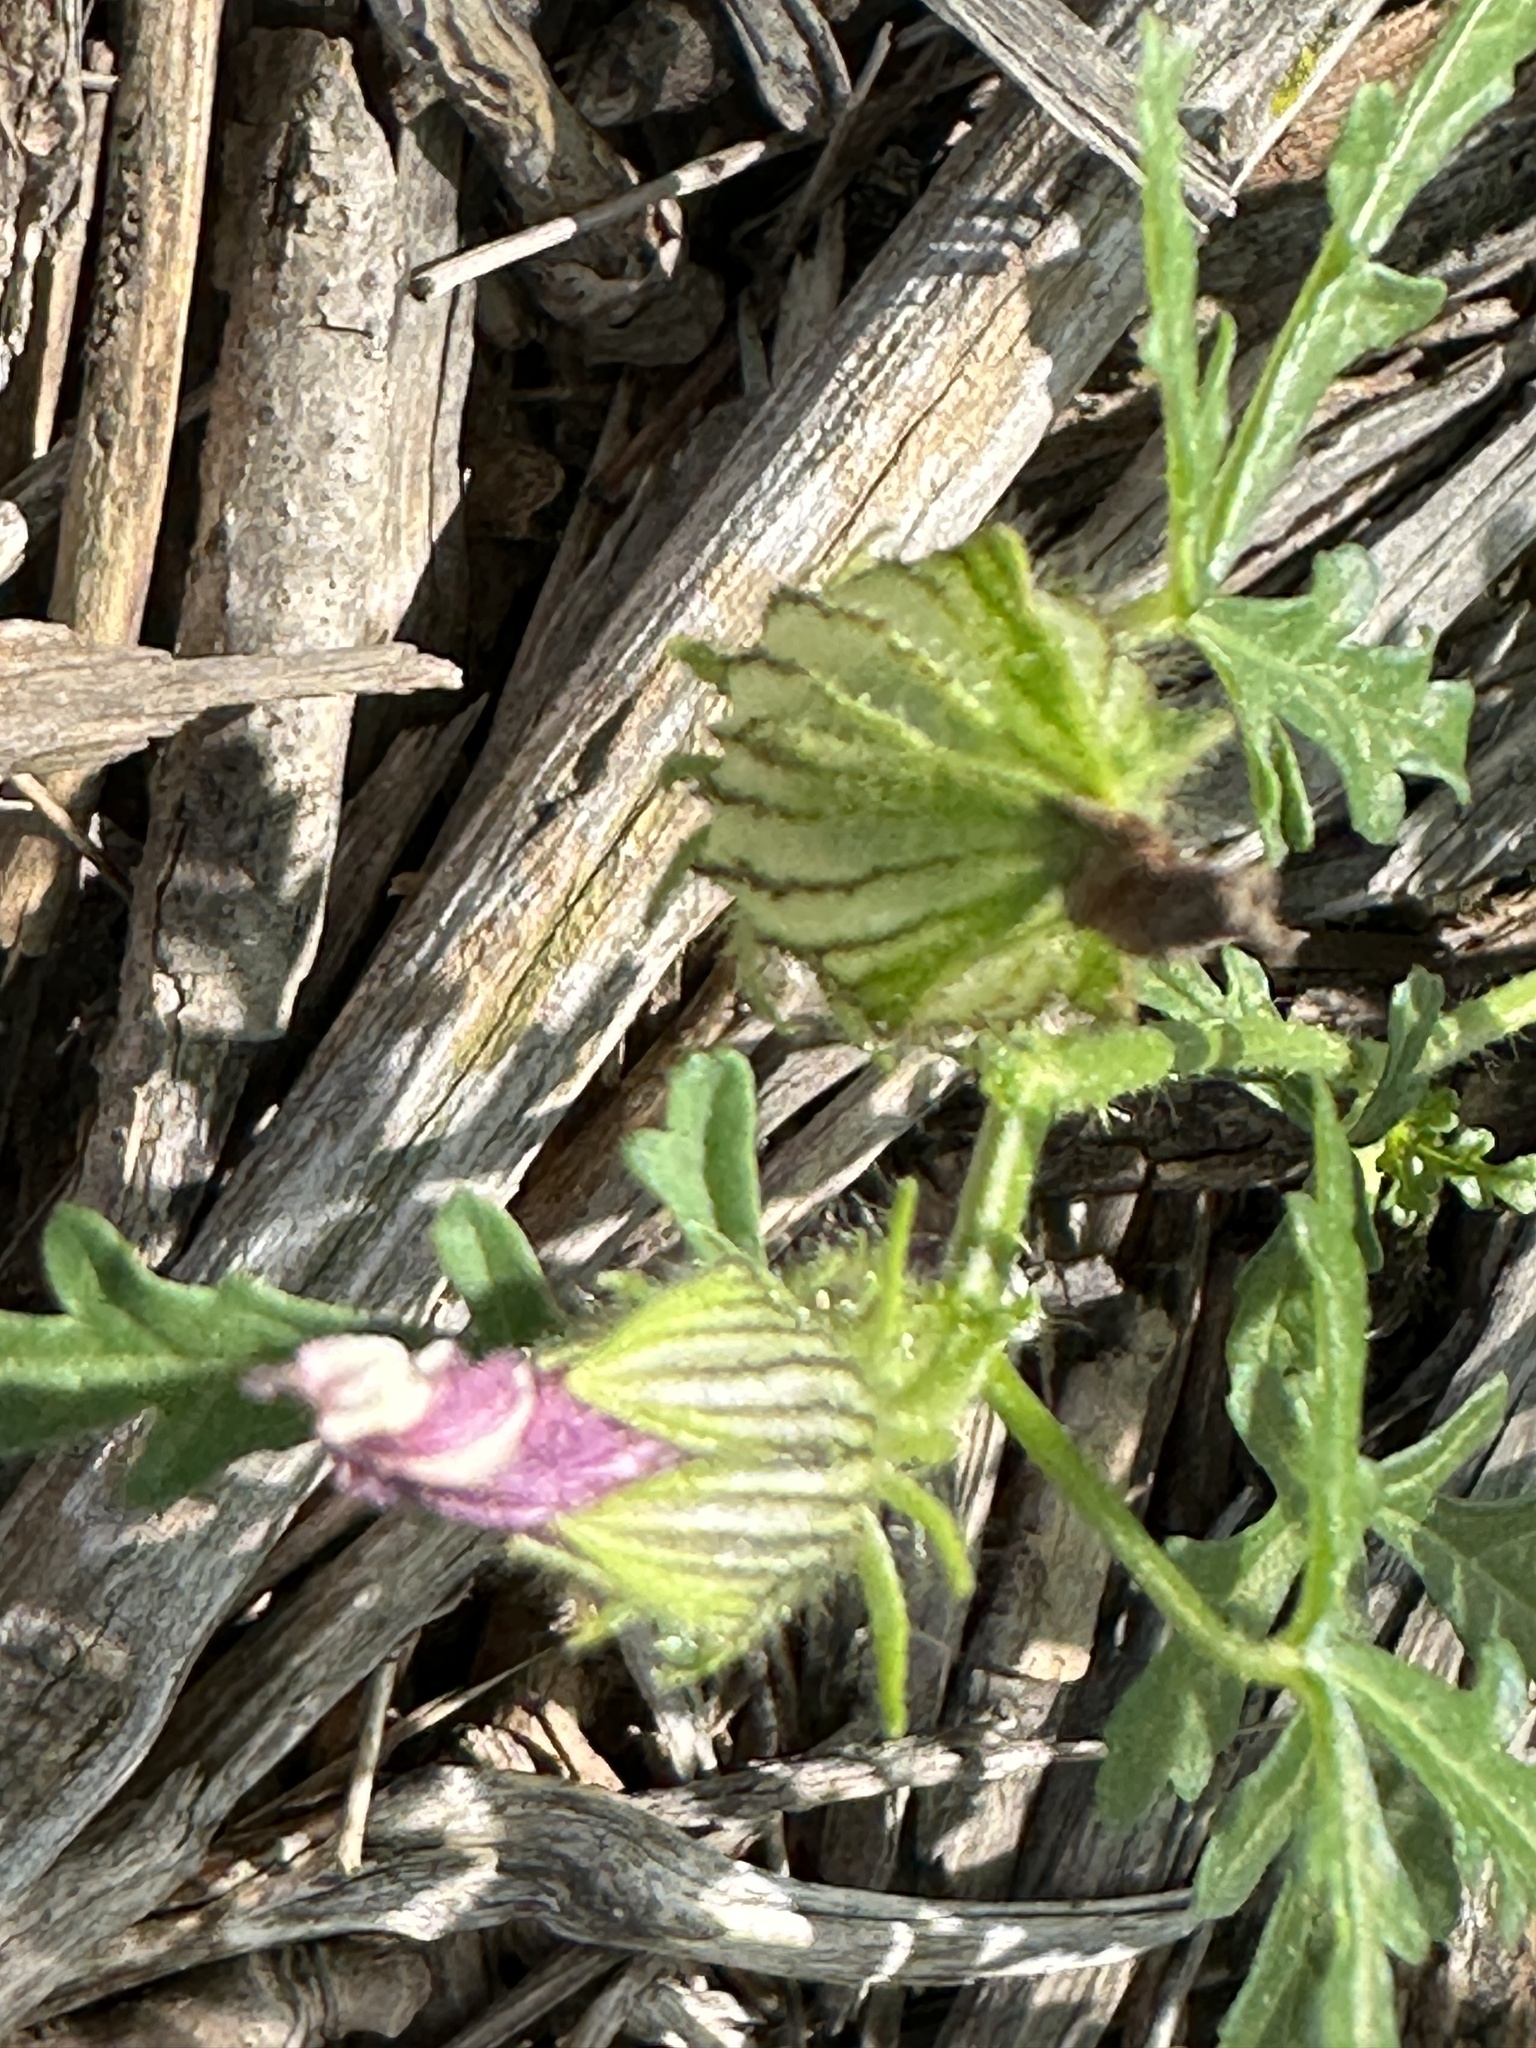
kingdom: Plantae
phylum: Tracheophyta
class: Magnoliopsida
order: Malvales
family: Malvaceae
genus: Hibiscus
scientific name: Hibiscus trionum
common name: Bladder ketmia
